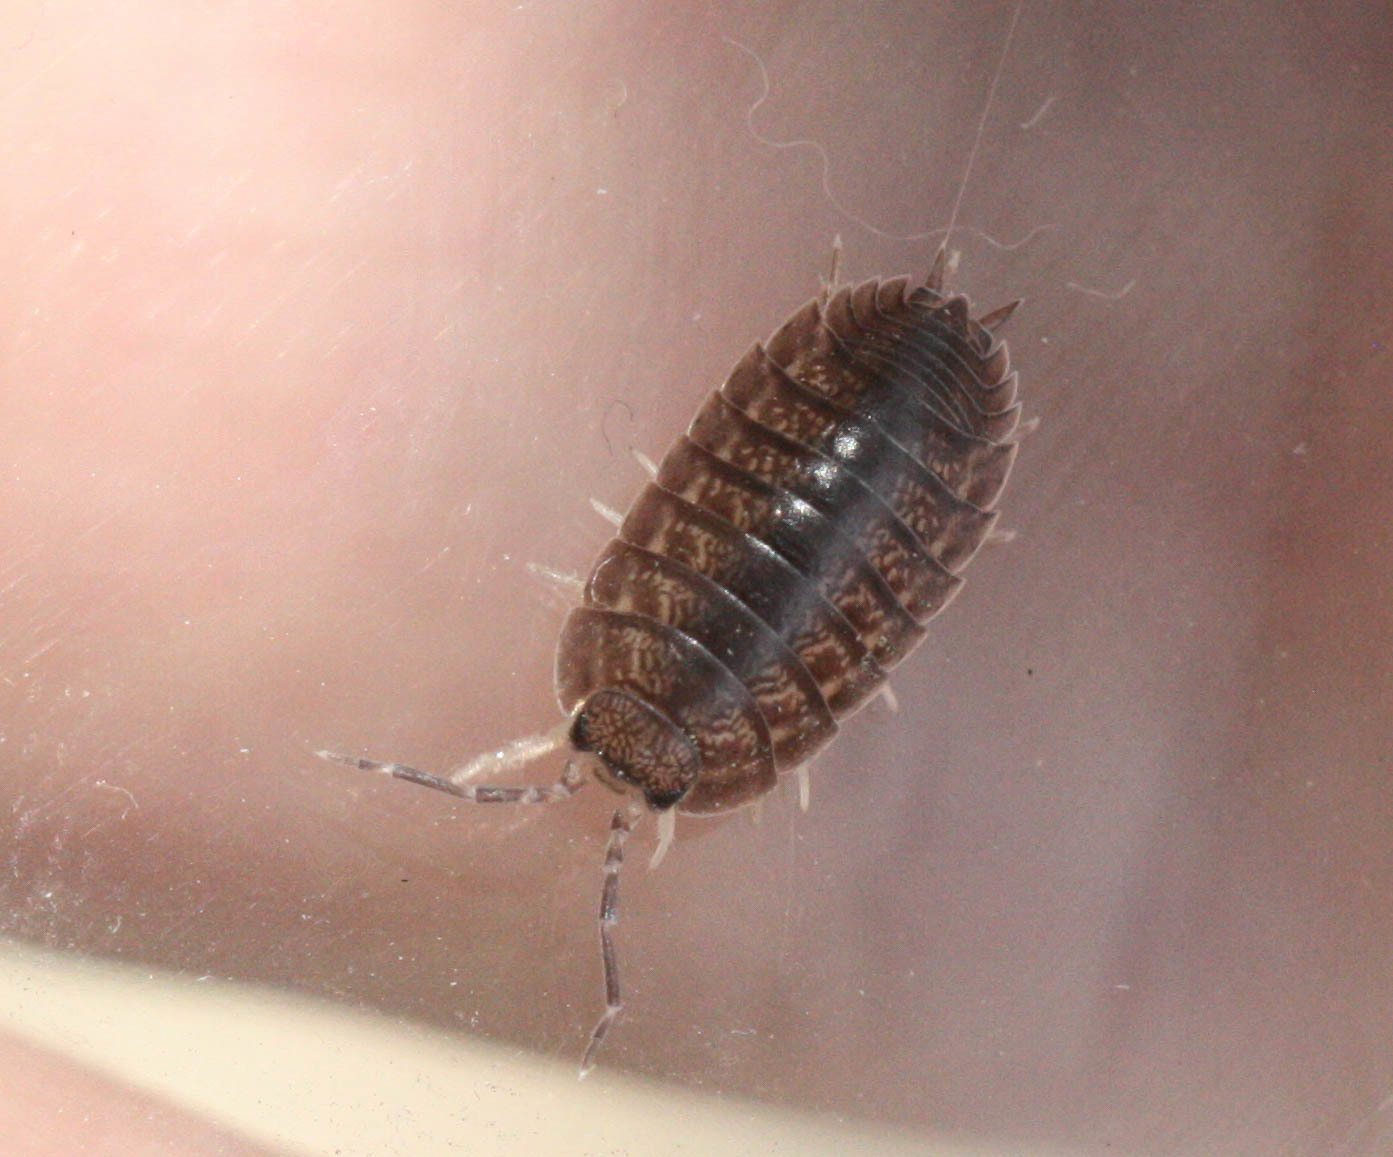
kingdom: Animalia
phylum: Arthropoda
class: Malacostraca
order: Isopoda
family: Porcellionidae
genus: Porcellio
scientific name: Porcellio laevis
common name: Swift woodlouse
